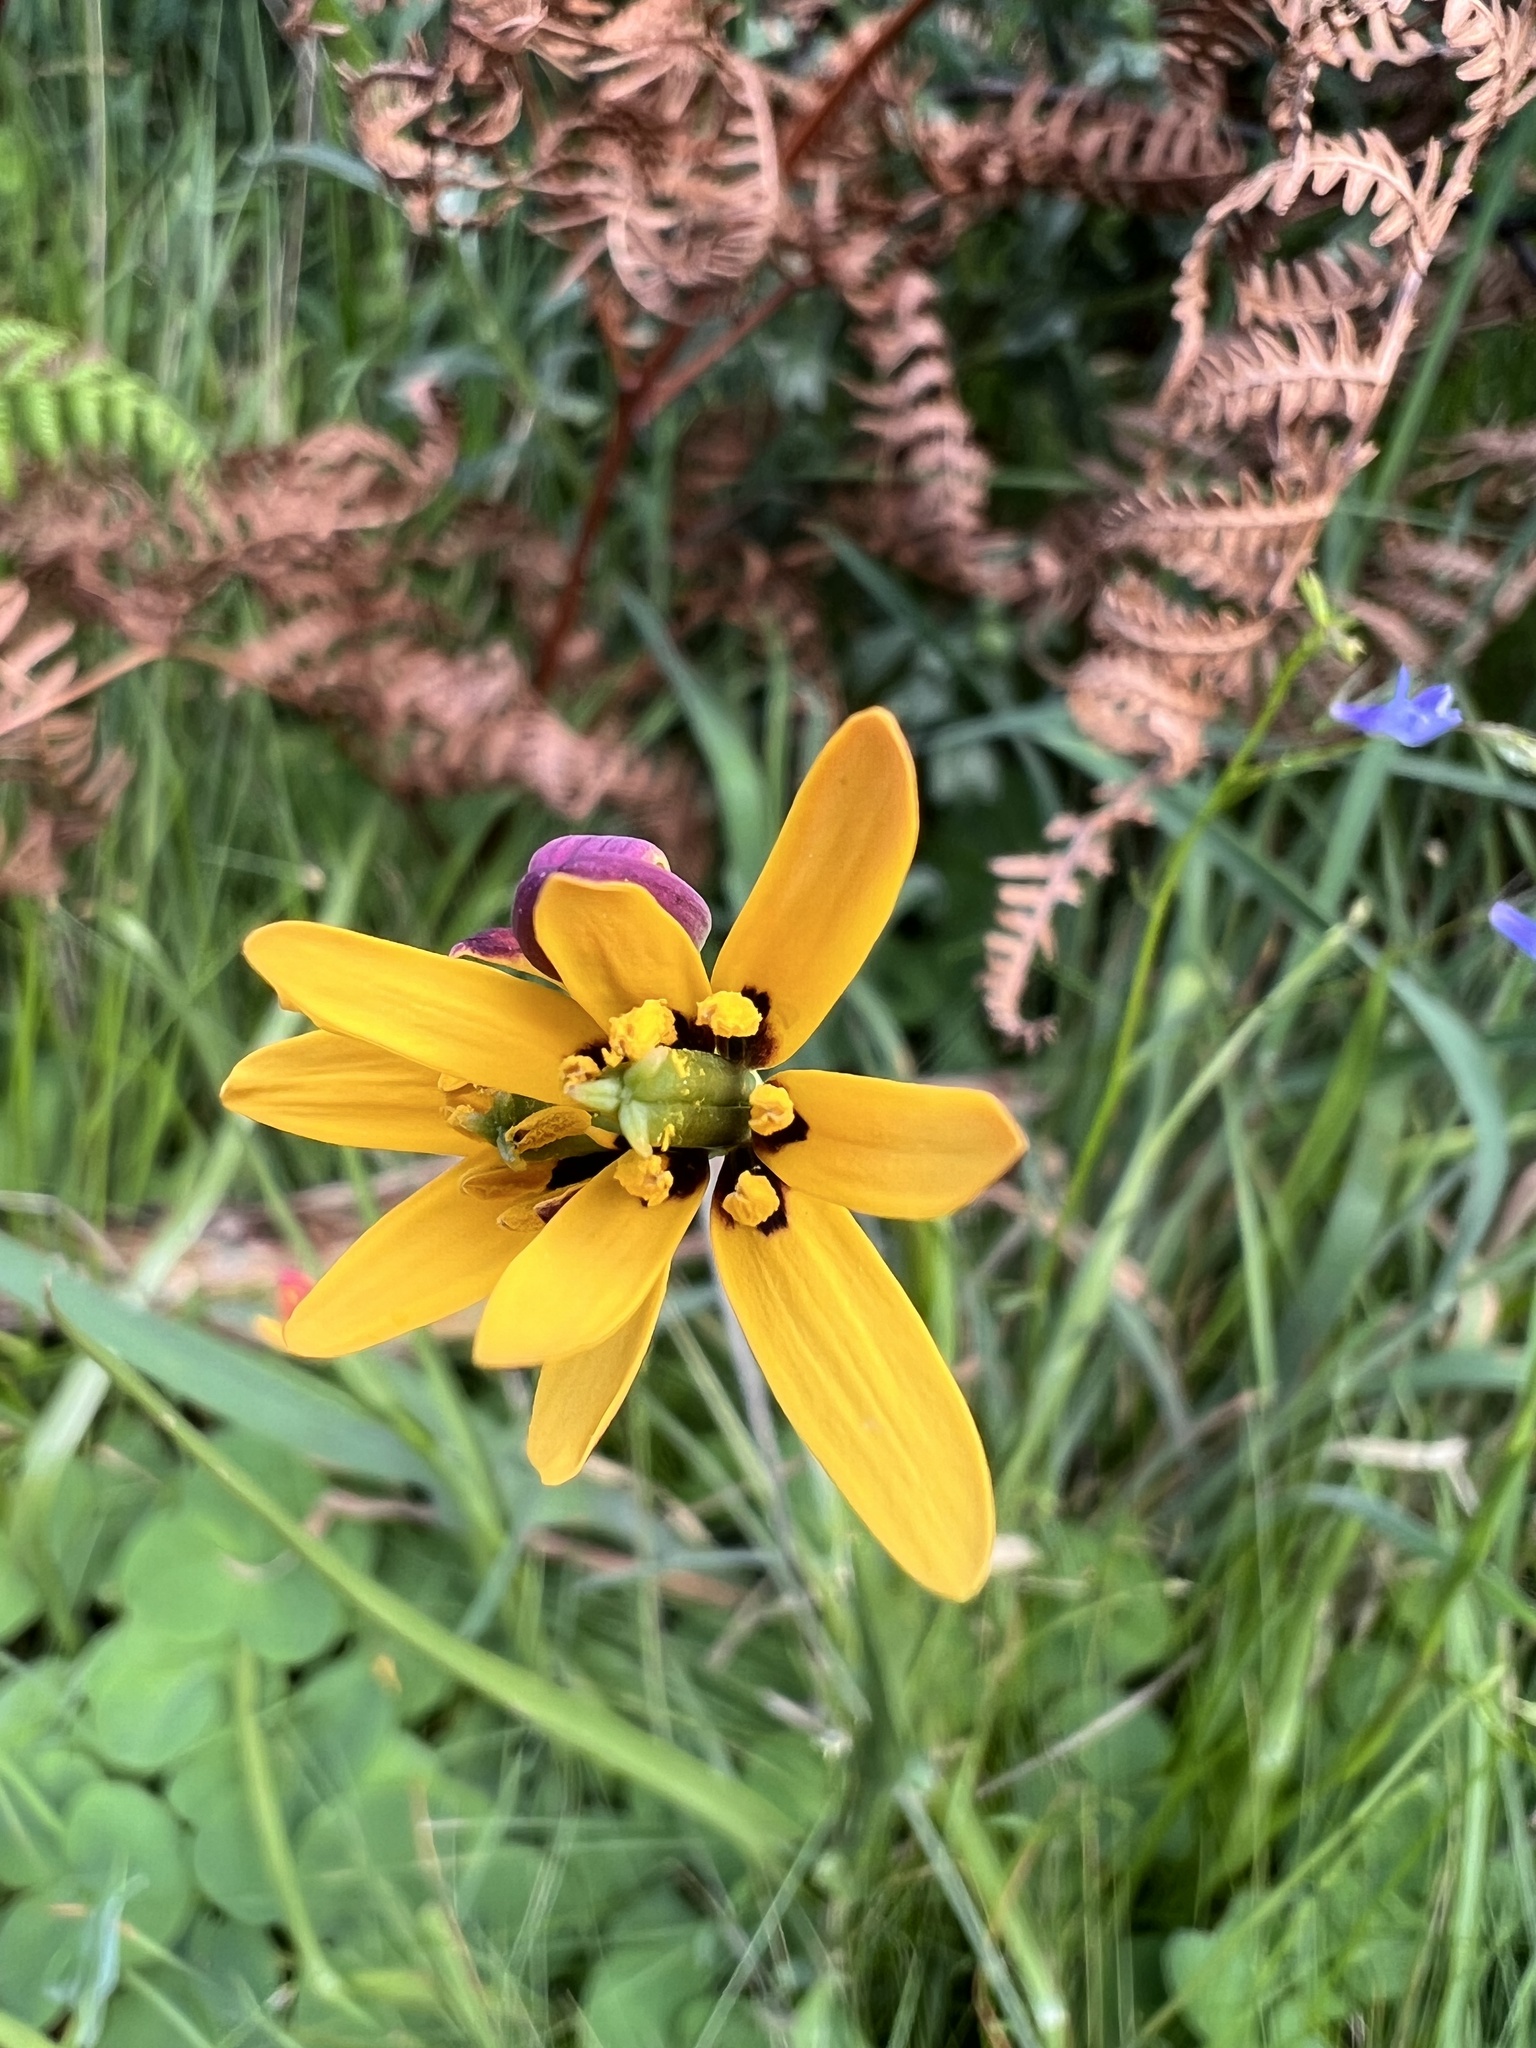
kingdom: Plantae
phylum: Tracheophyta
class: Liliopsida
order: Liliales
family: Colchicaceae
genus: Baeometra
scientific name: Baeometra uniflora
